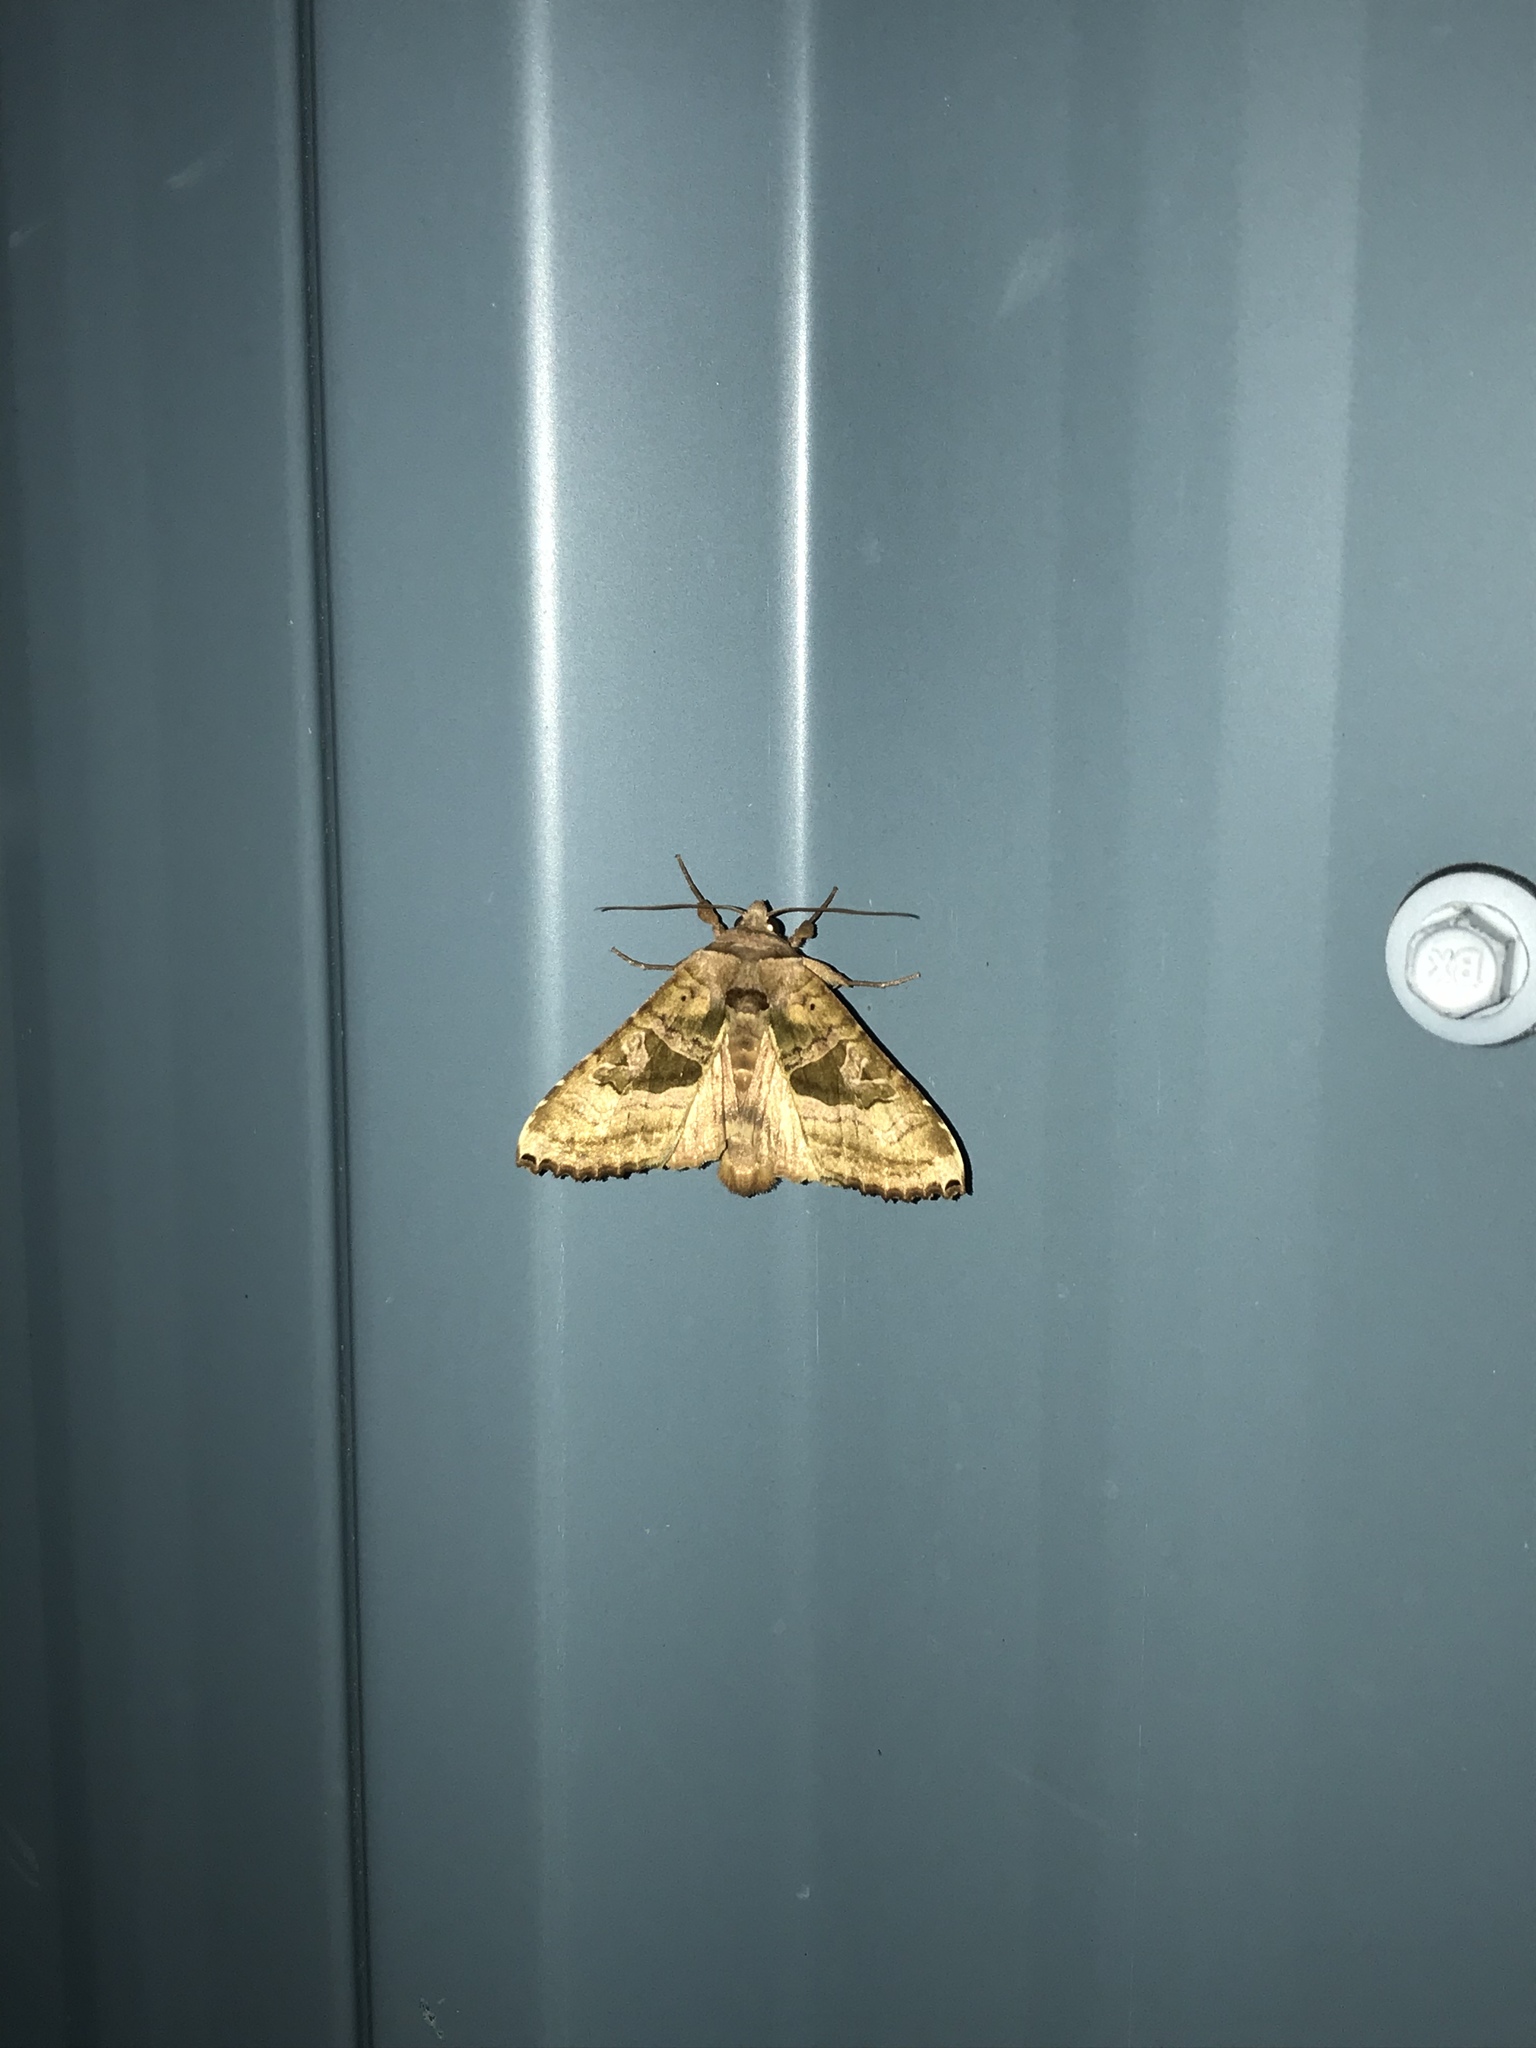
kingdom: Animalia
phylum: Arthropoda
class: Insecta
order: Lepidoptera
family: Noctuidae
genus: Phlogophora
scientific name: Phlogophora periculosa
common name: Brown angle shades
